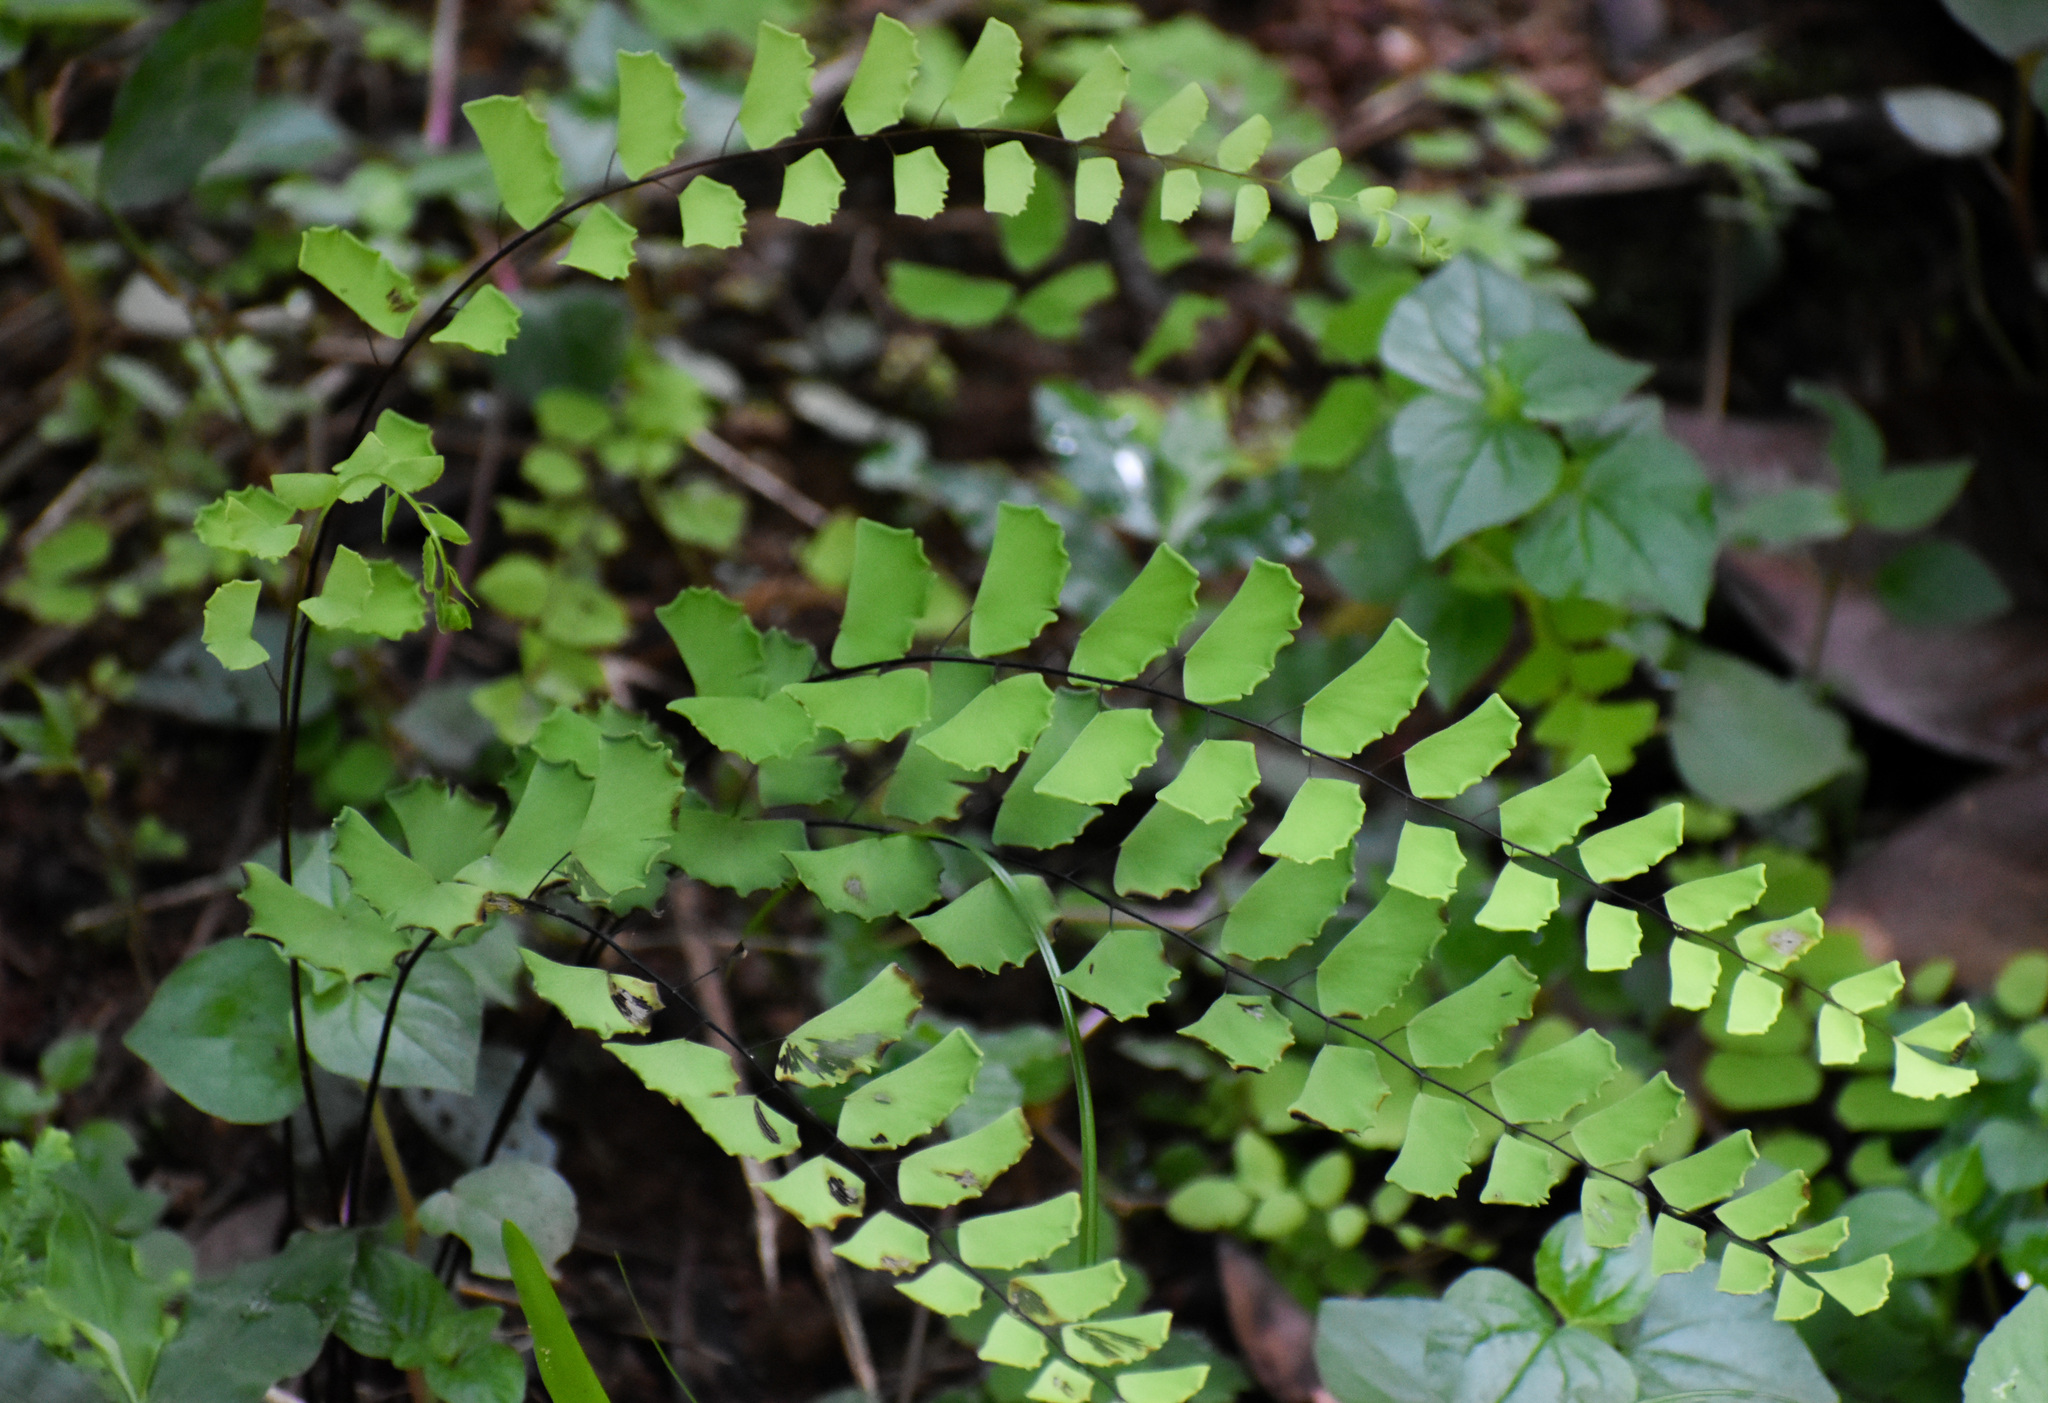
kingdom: Plantae
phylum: Tracheophyta
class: Polypodiopsida
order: Polypodiales
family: Pteridaceae
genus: Adiantum
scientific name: Adiantum philippense
